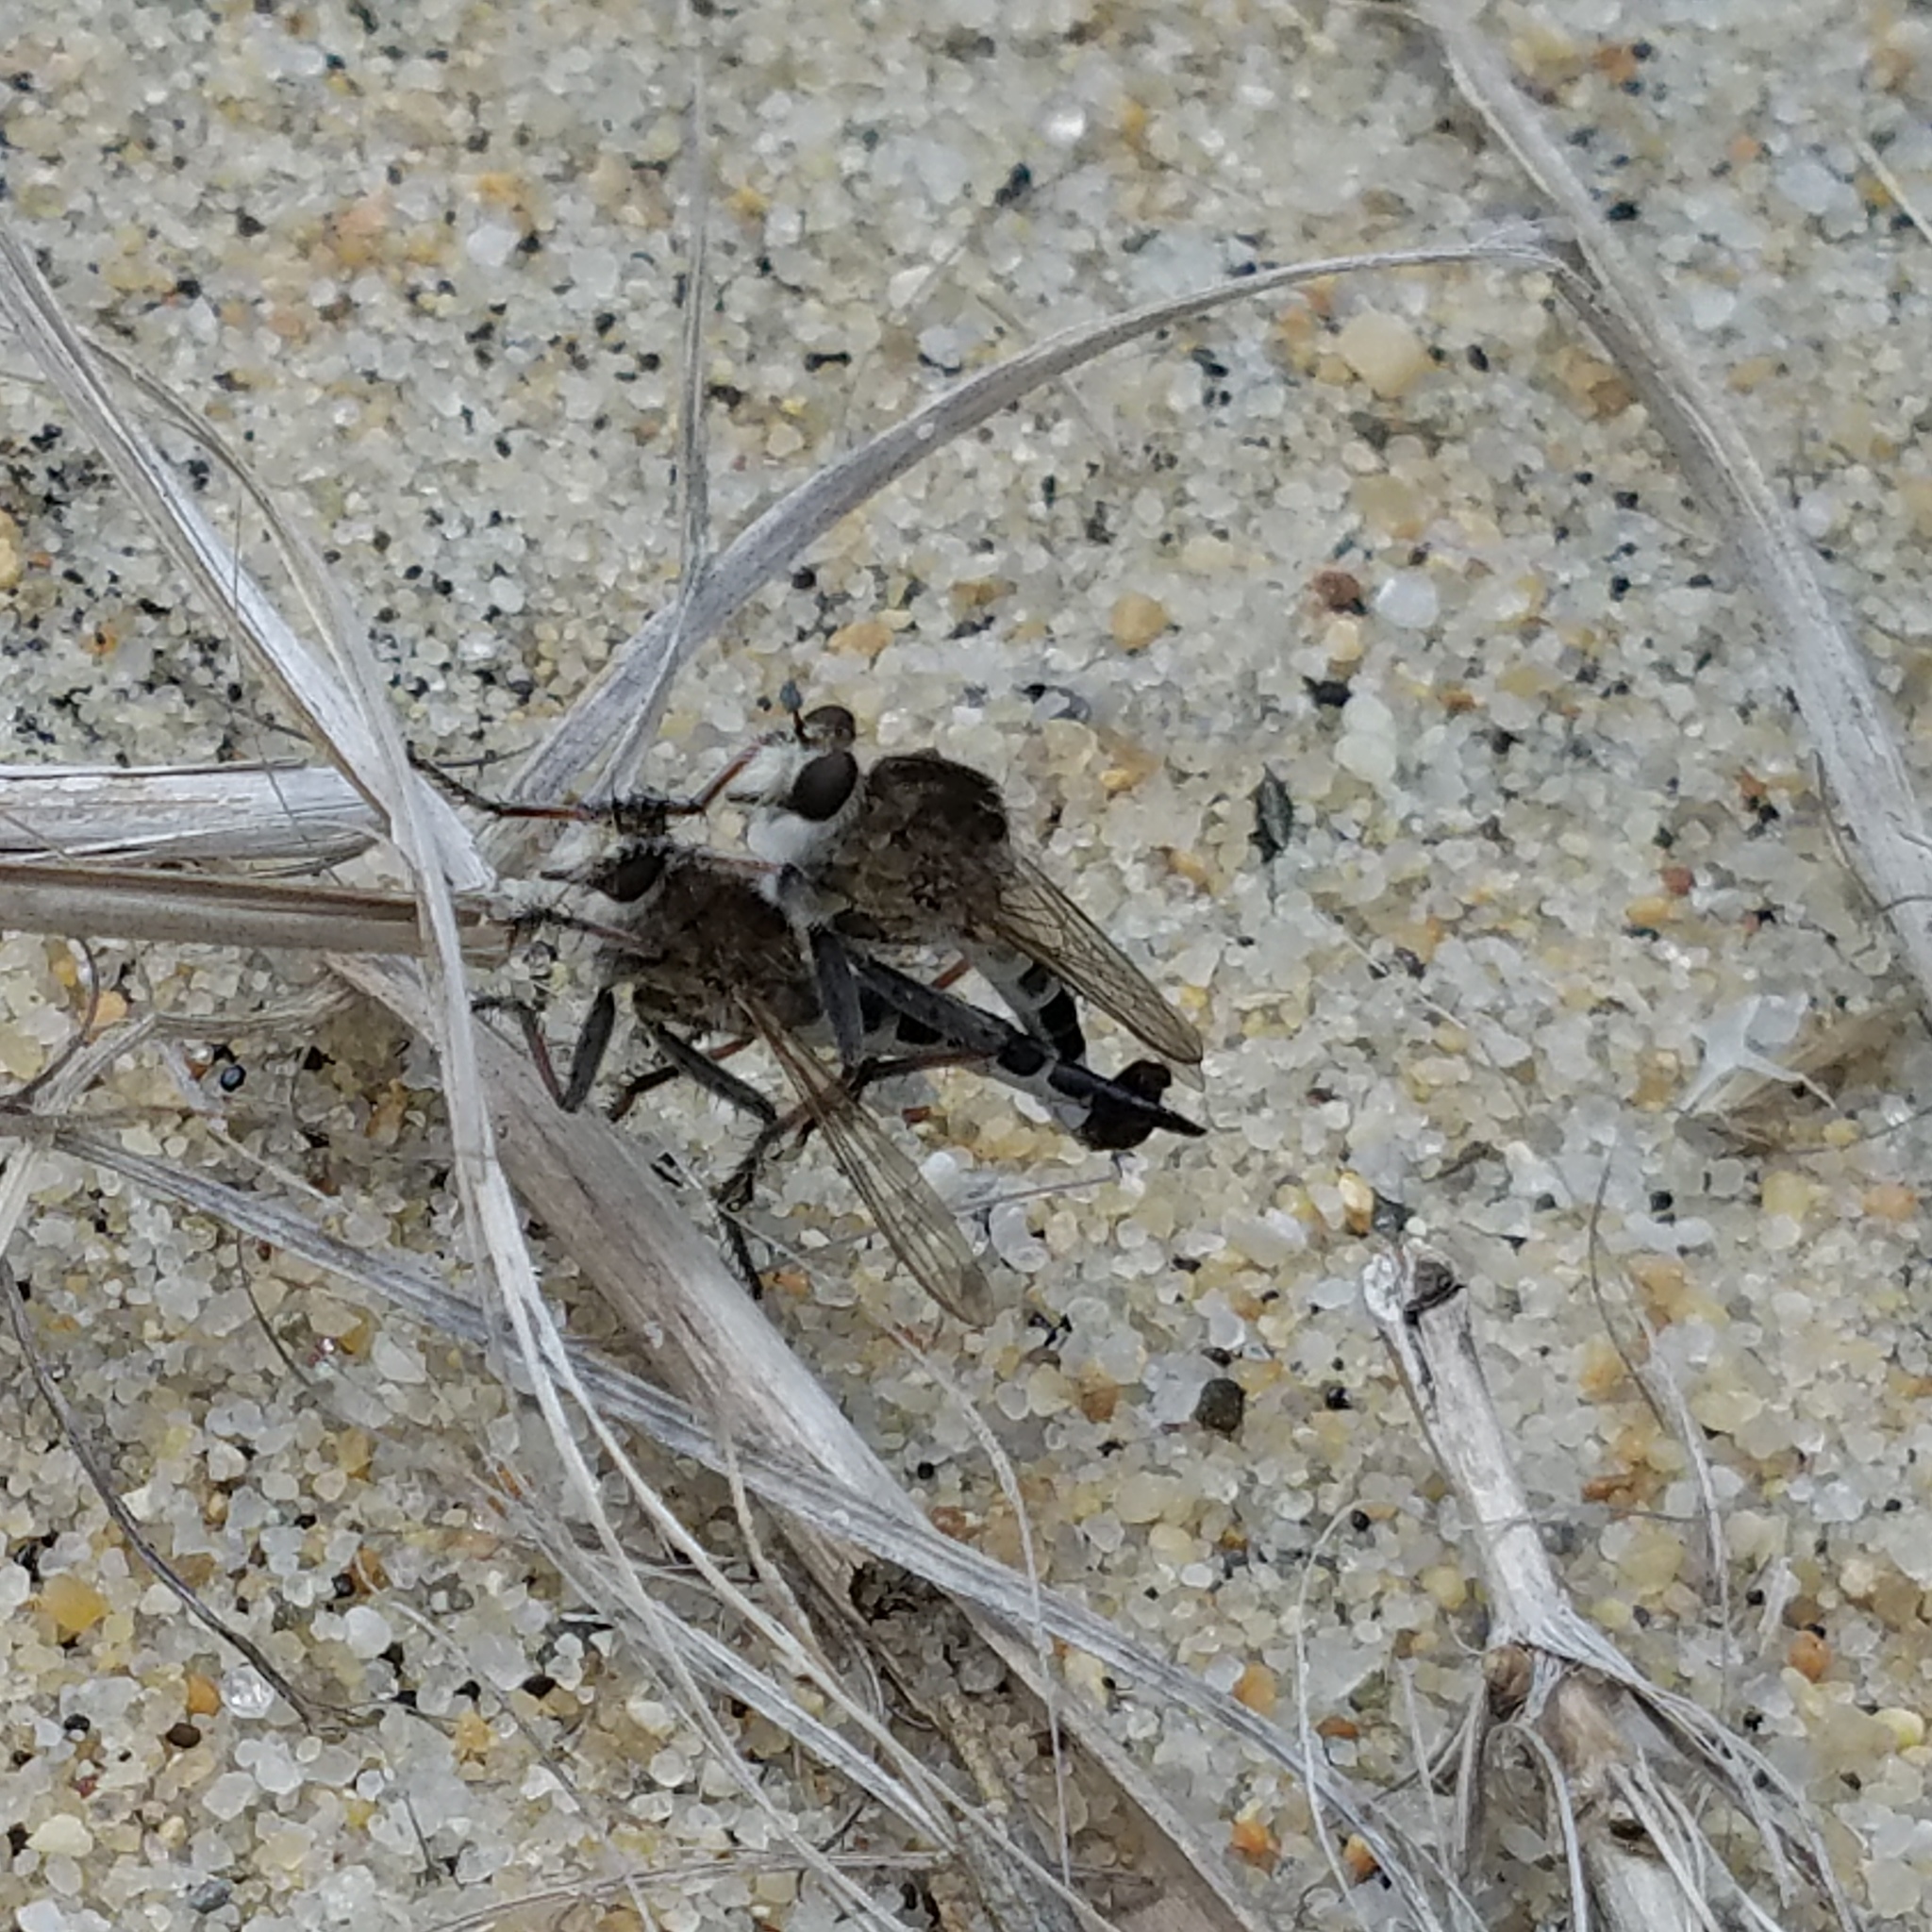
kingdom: Animalia
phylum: Arthropoda
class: Insecta
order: Diptera
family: Asilidae
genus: Efferia
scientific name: Efferia albibarbis
